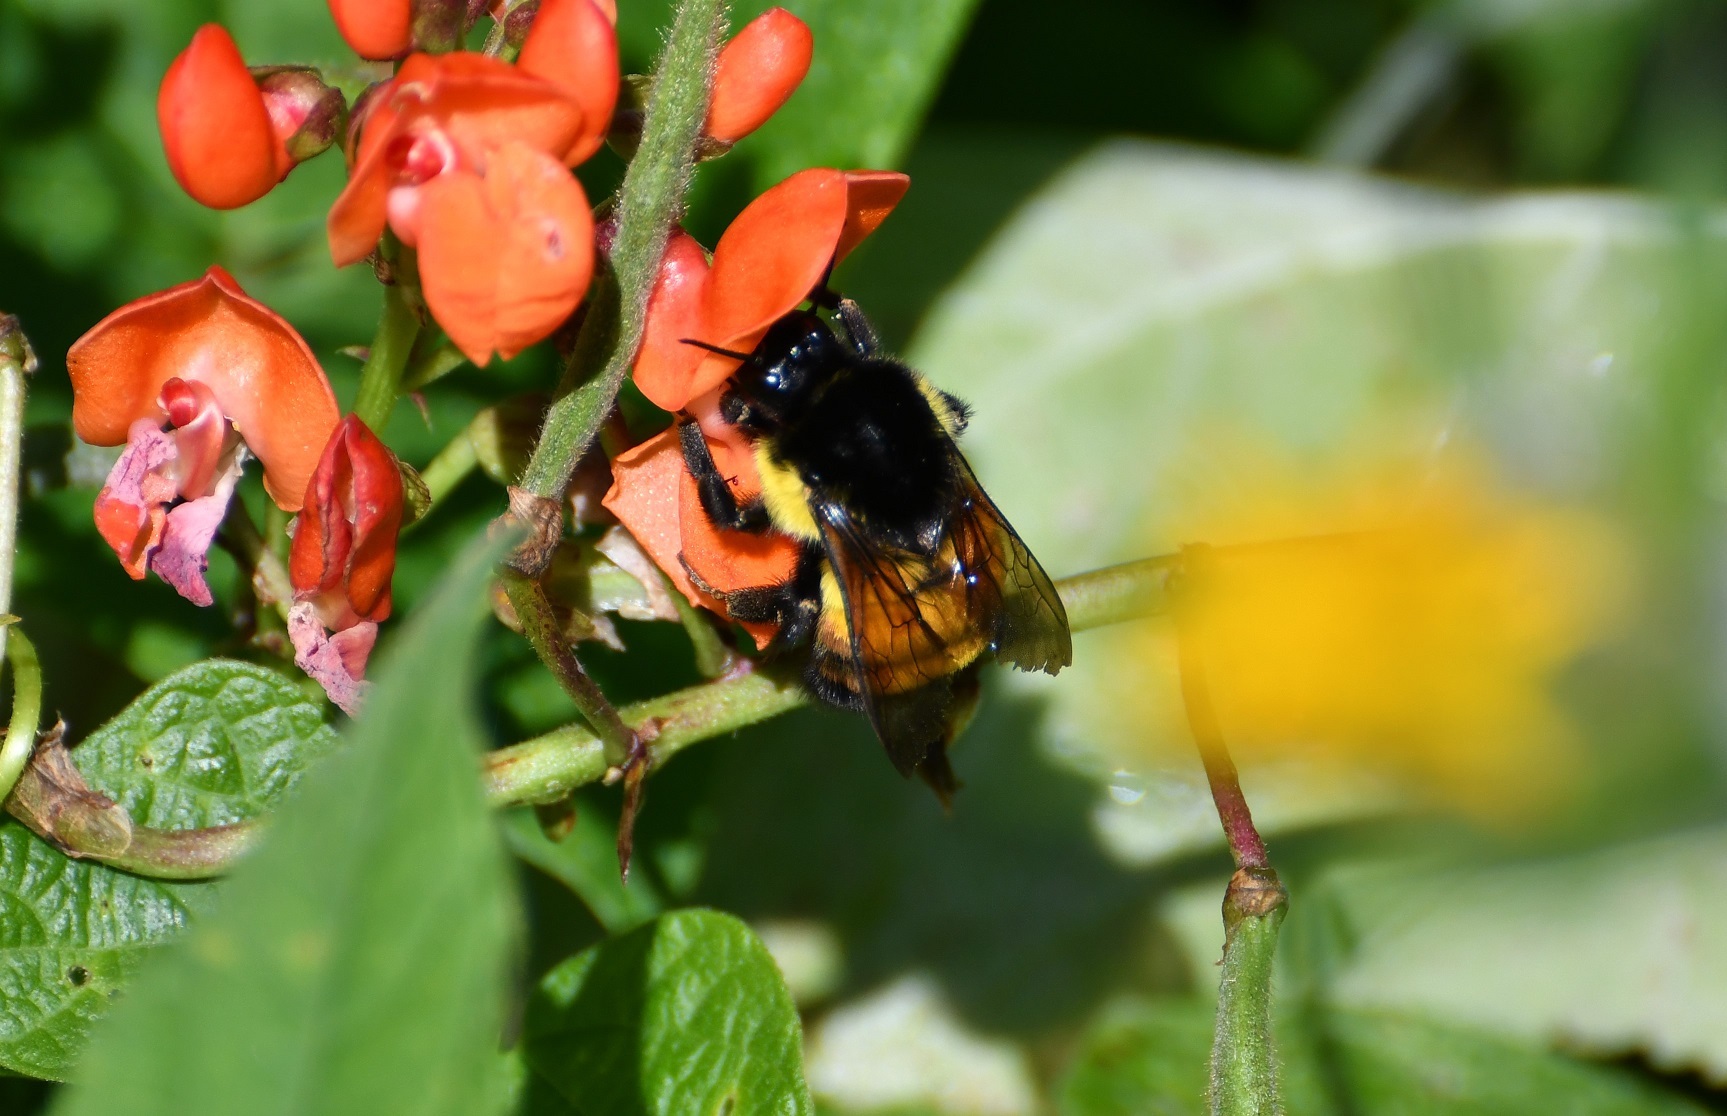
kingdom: Animalia
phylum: Arthropoda
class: Insecta
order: Hymenoptera
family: Apidae
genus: Bombus
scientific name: Bombus ephippiatus
